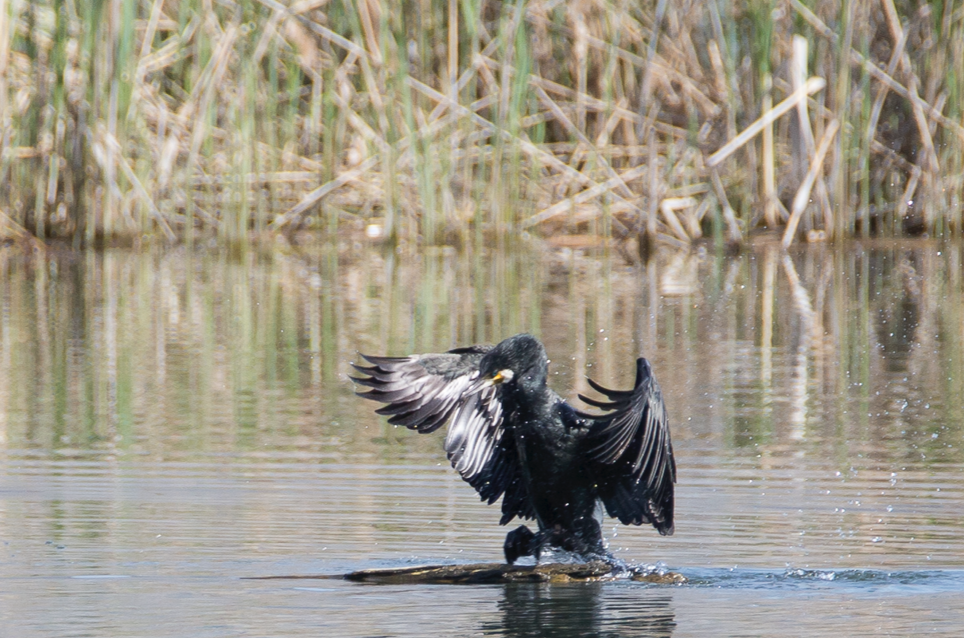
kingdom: Animalia
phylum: Chordata
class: Aves
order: Suliformes
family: Phalacrocoracidae
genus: Phalacrocorax
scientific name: Phalacrocorax carbo
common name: Great cormorant
